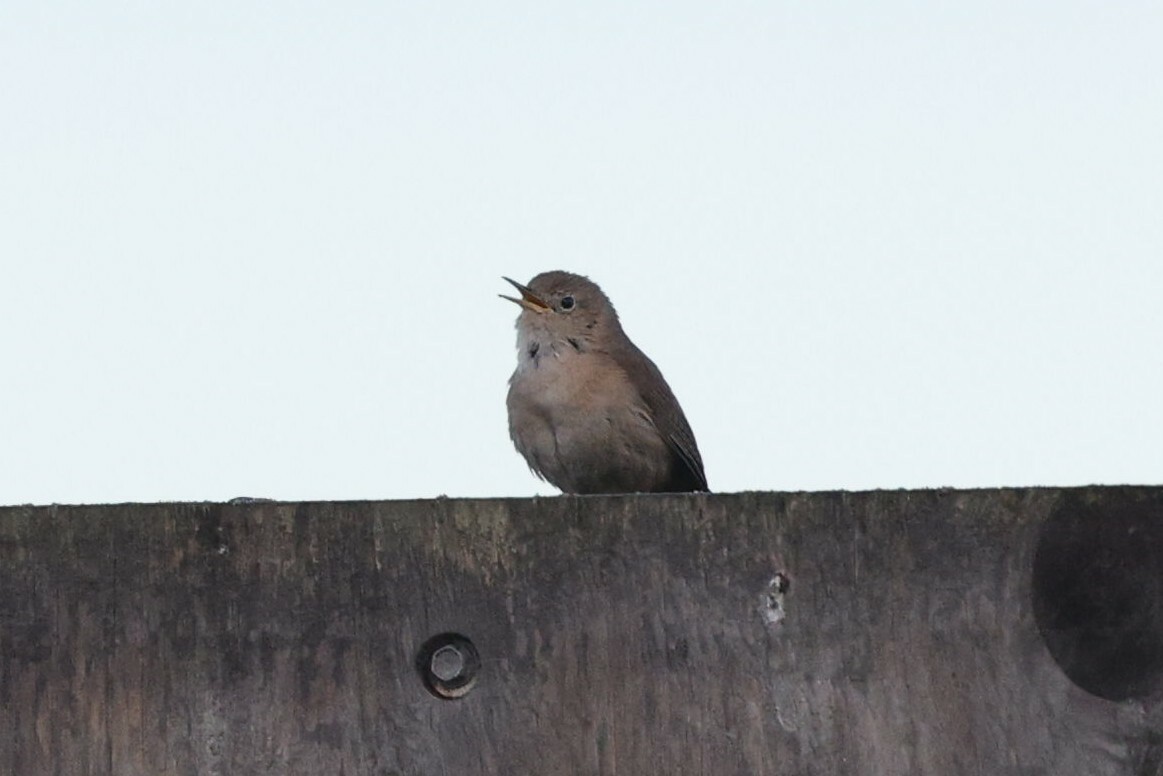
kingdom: Animalia
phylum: Chordata
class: Aves
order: Passeriformes
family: Troglodytidae
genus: Troglodytes
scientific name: Troglodytes aedon
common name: House wren
